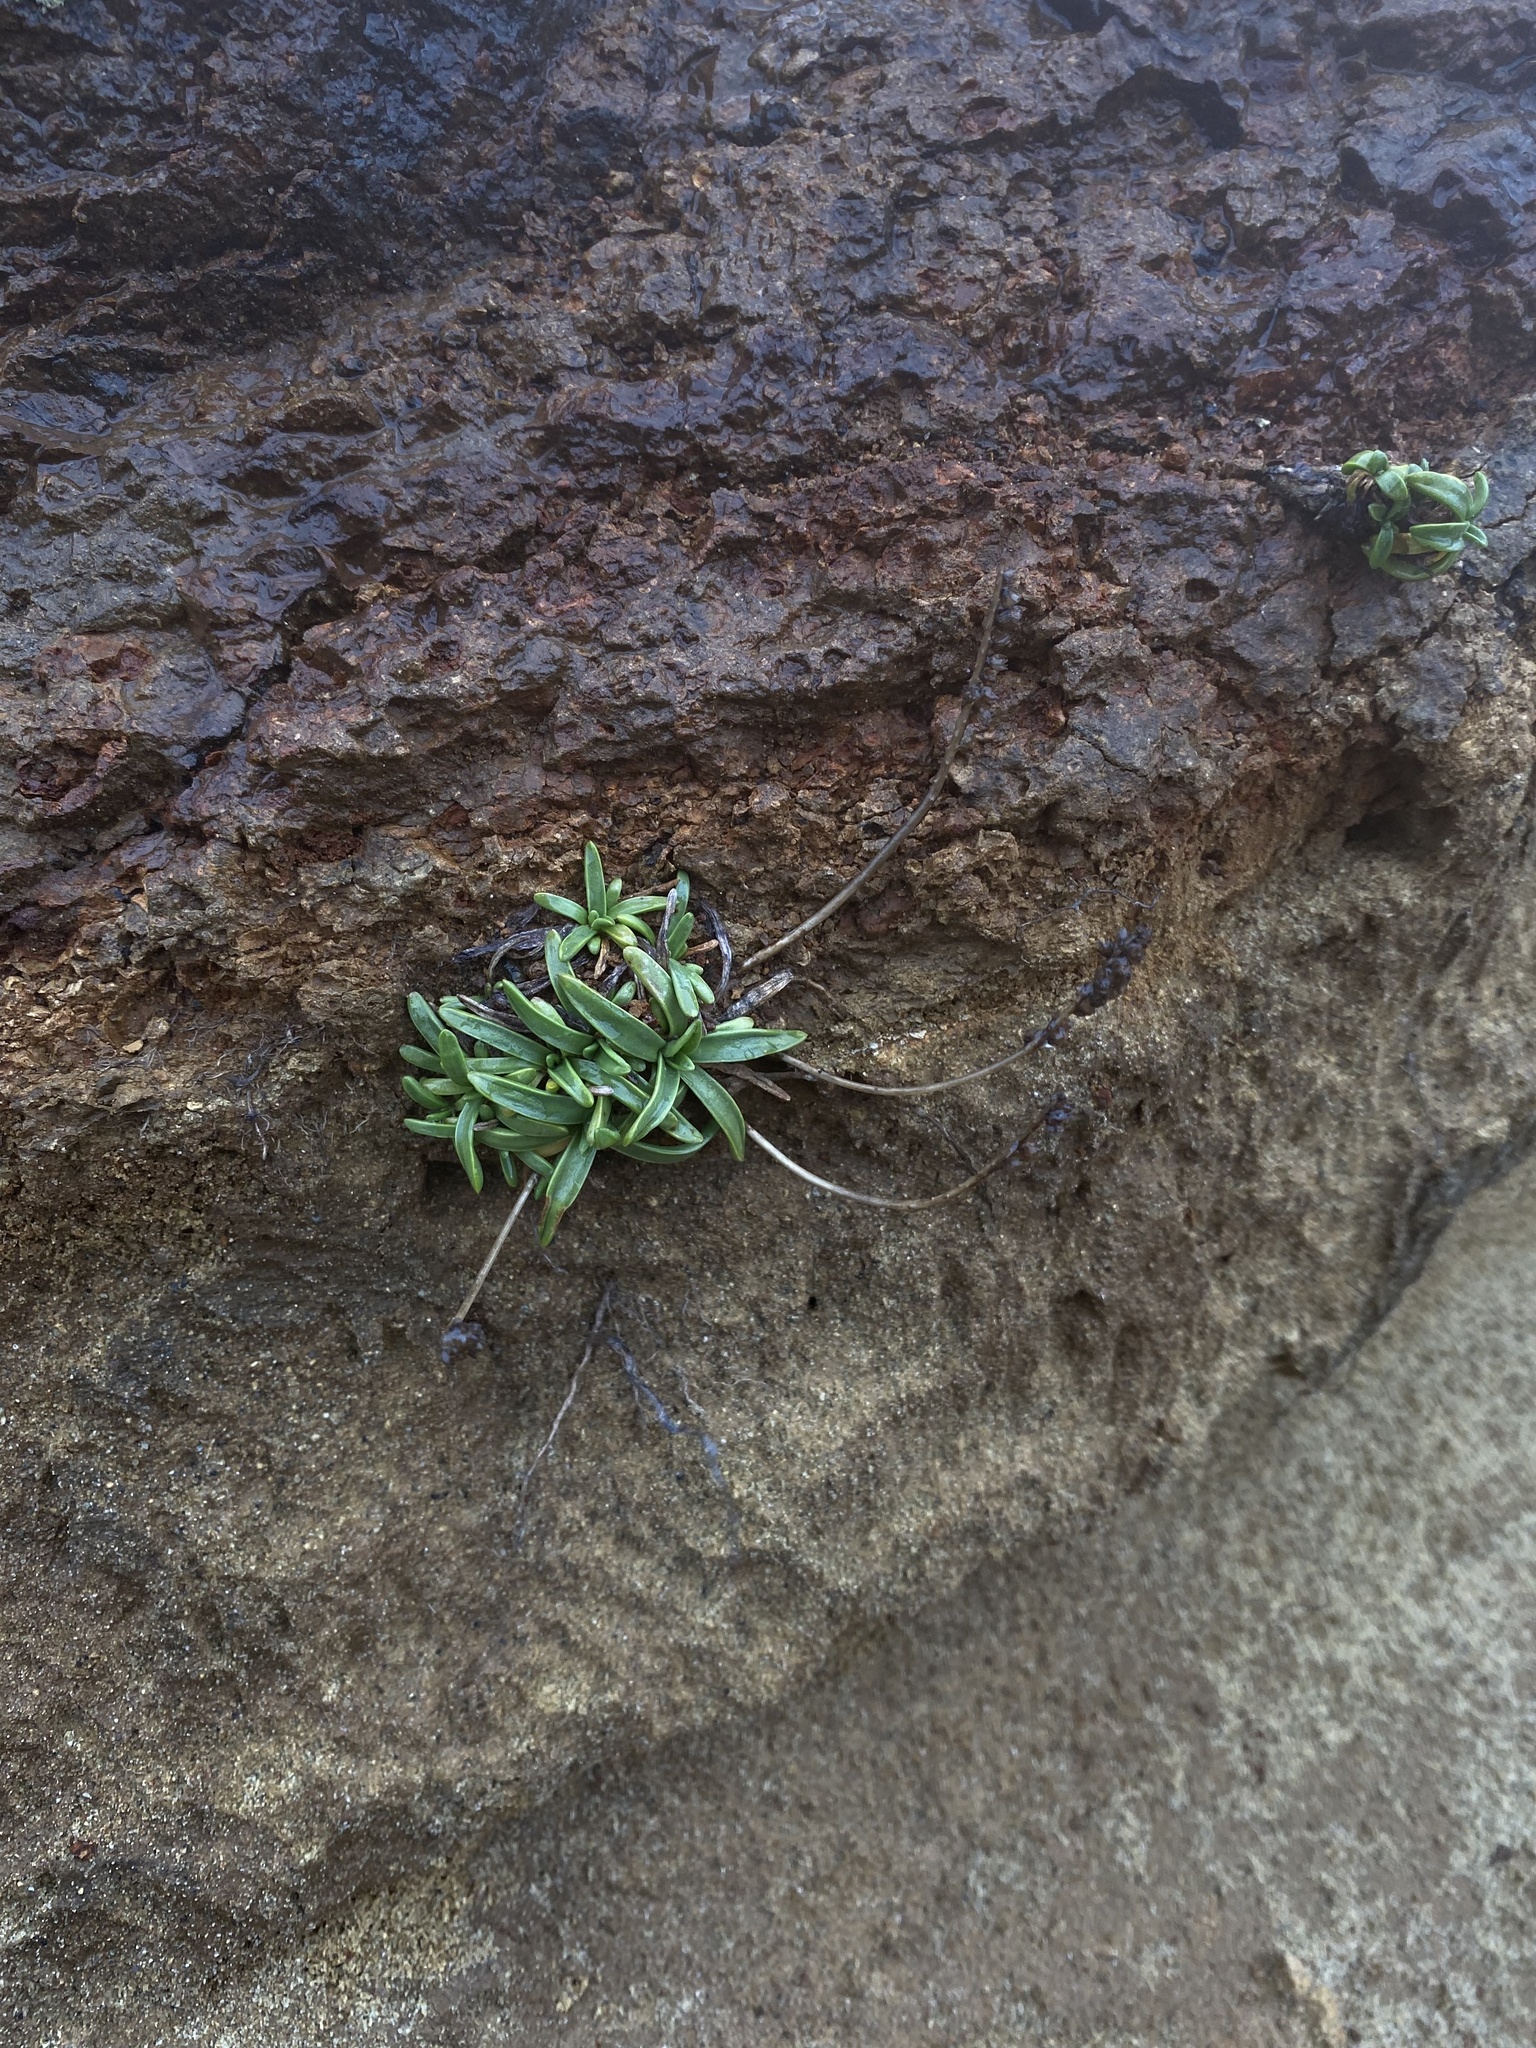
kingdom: Plantae
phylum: Tracheophyta
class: Magnoliopsida
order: Lamiales
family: Plantaginaceae
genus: Plantago
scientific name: Plantago maritima
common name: Sea plantain
